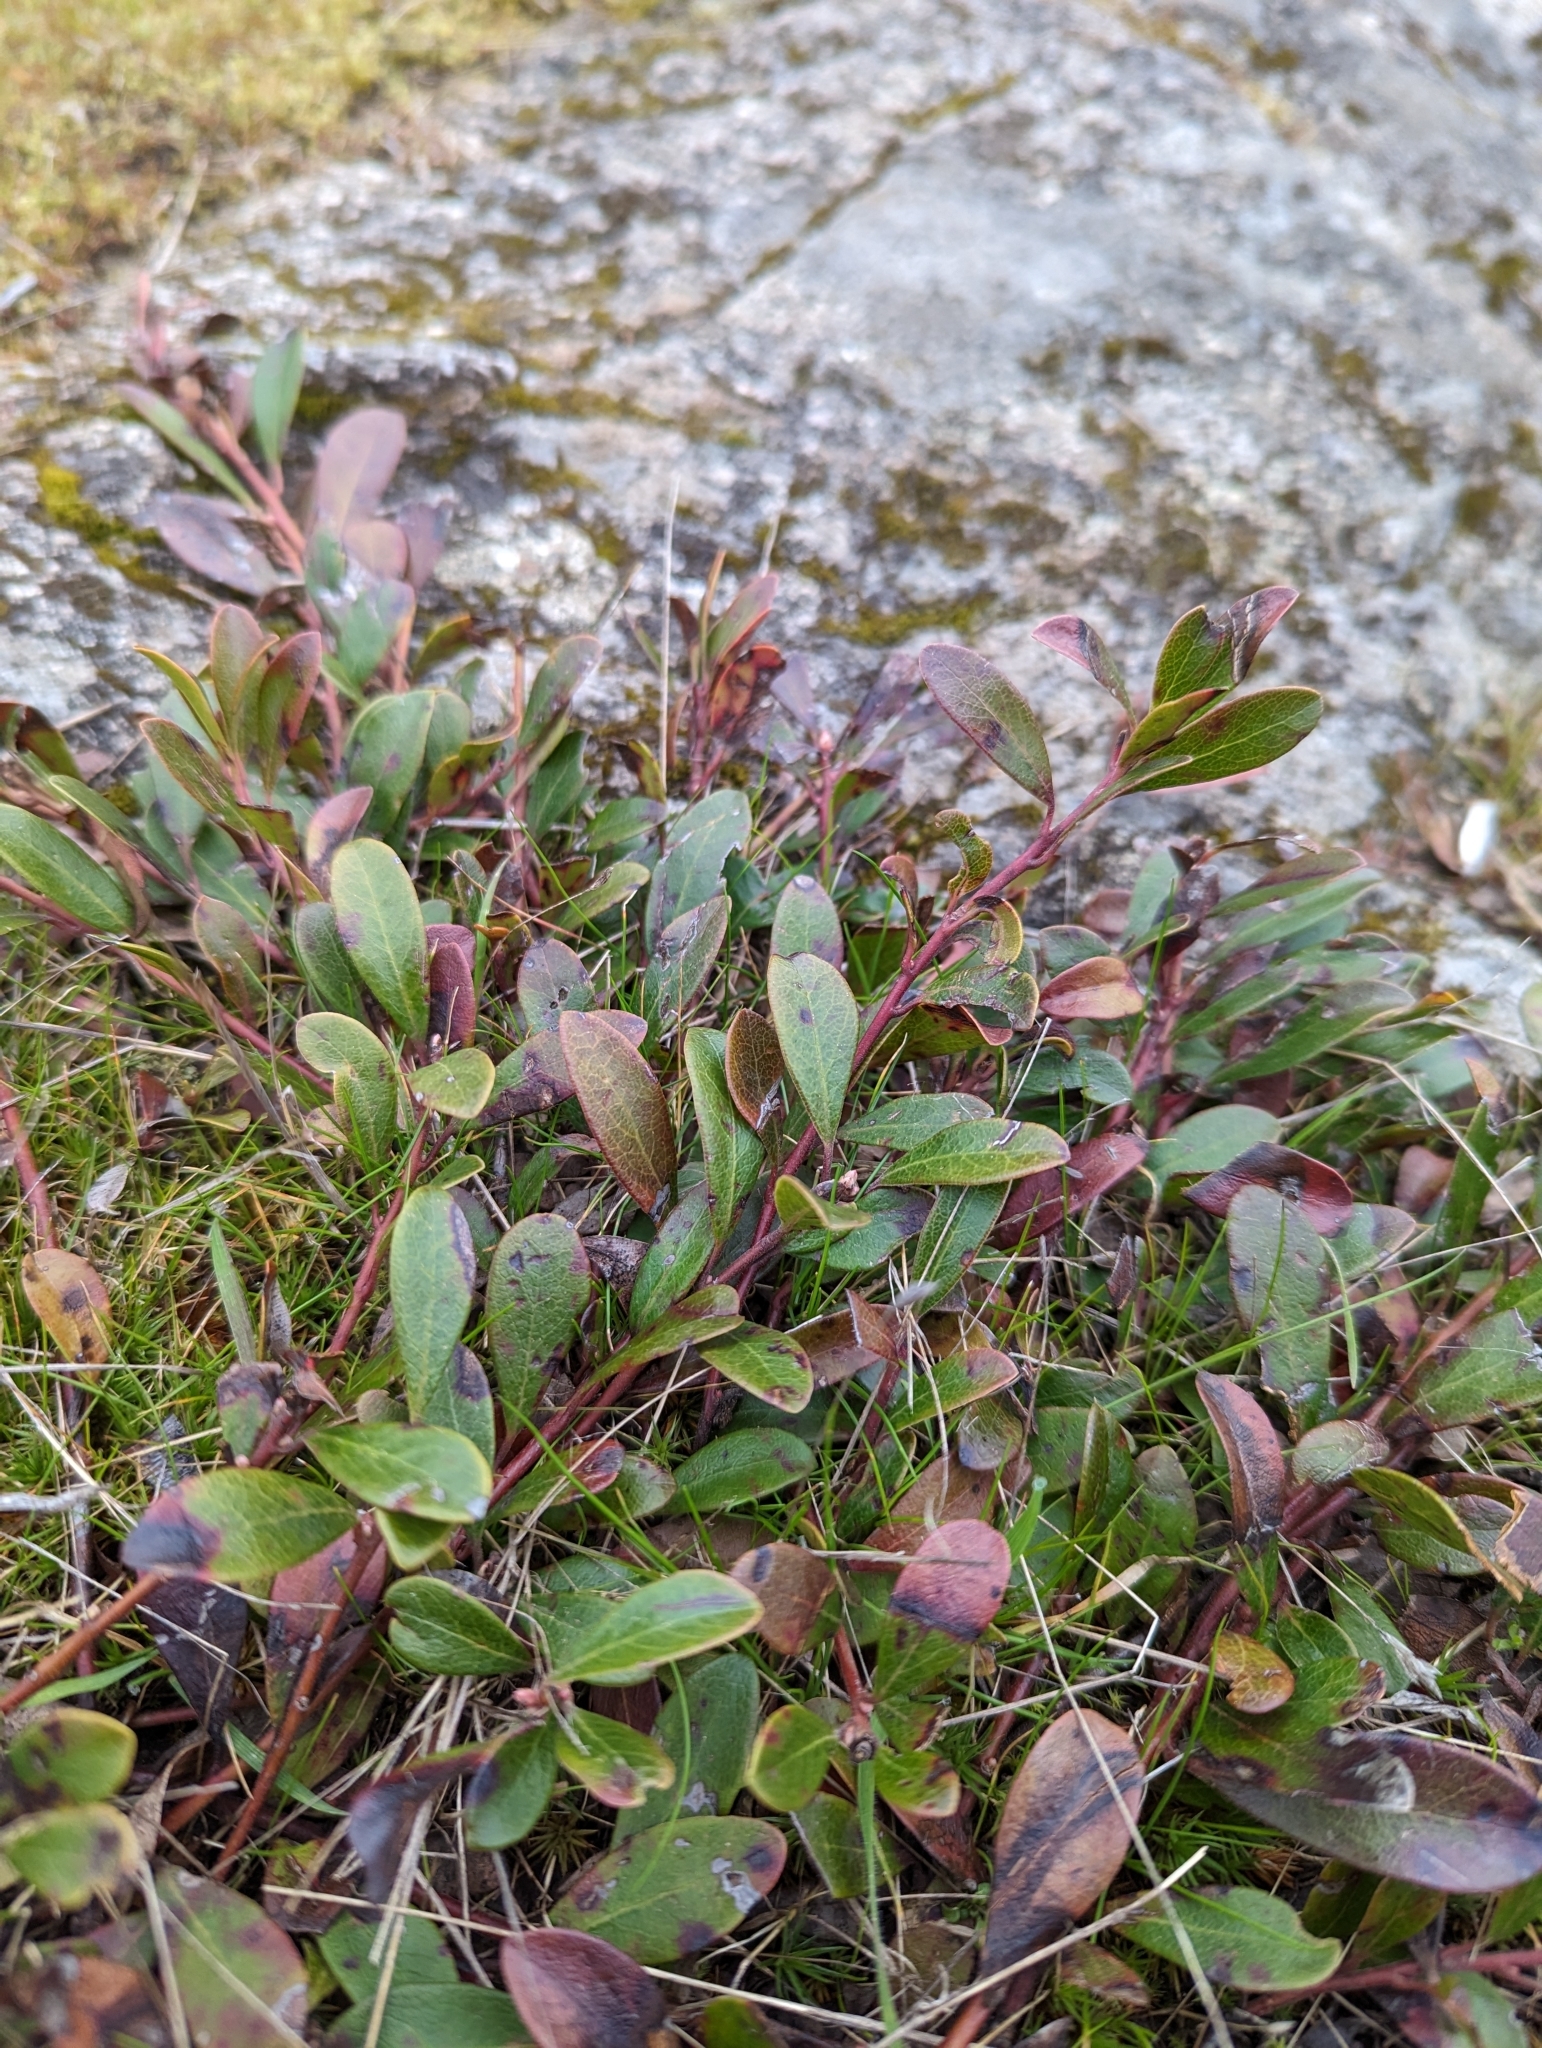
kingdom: Plantae
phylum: Tracheophyta
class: Magnoliopsida
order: Ericales
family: Ericaceae
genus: Arctostaphylos
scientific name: Arctostaphylos uva-ursi
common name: Bearberry
